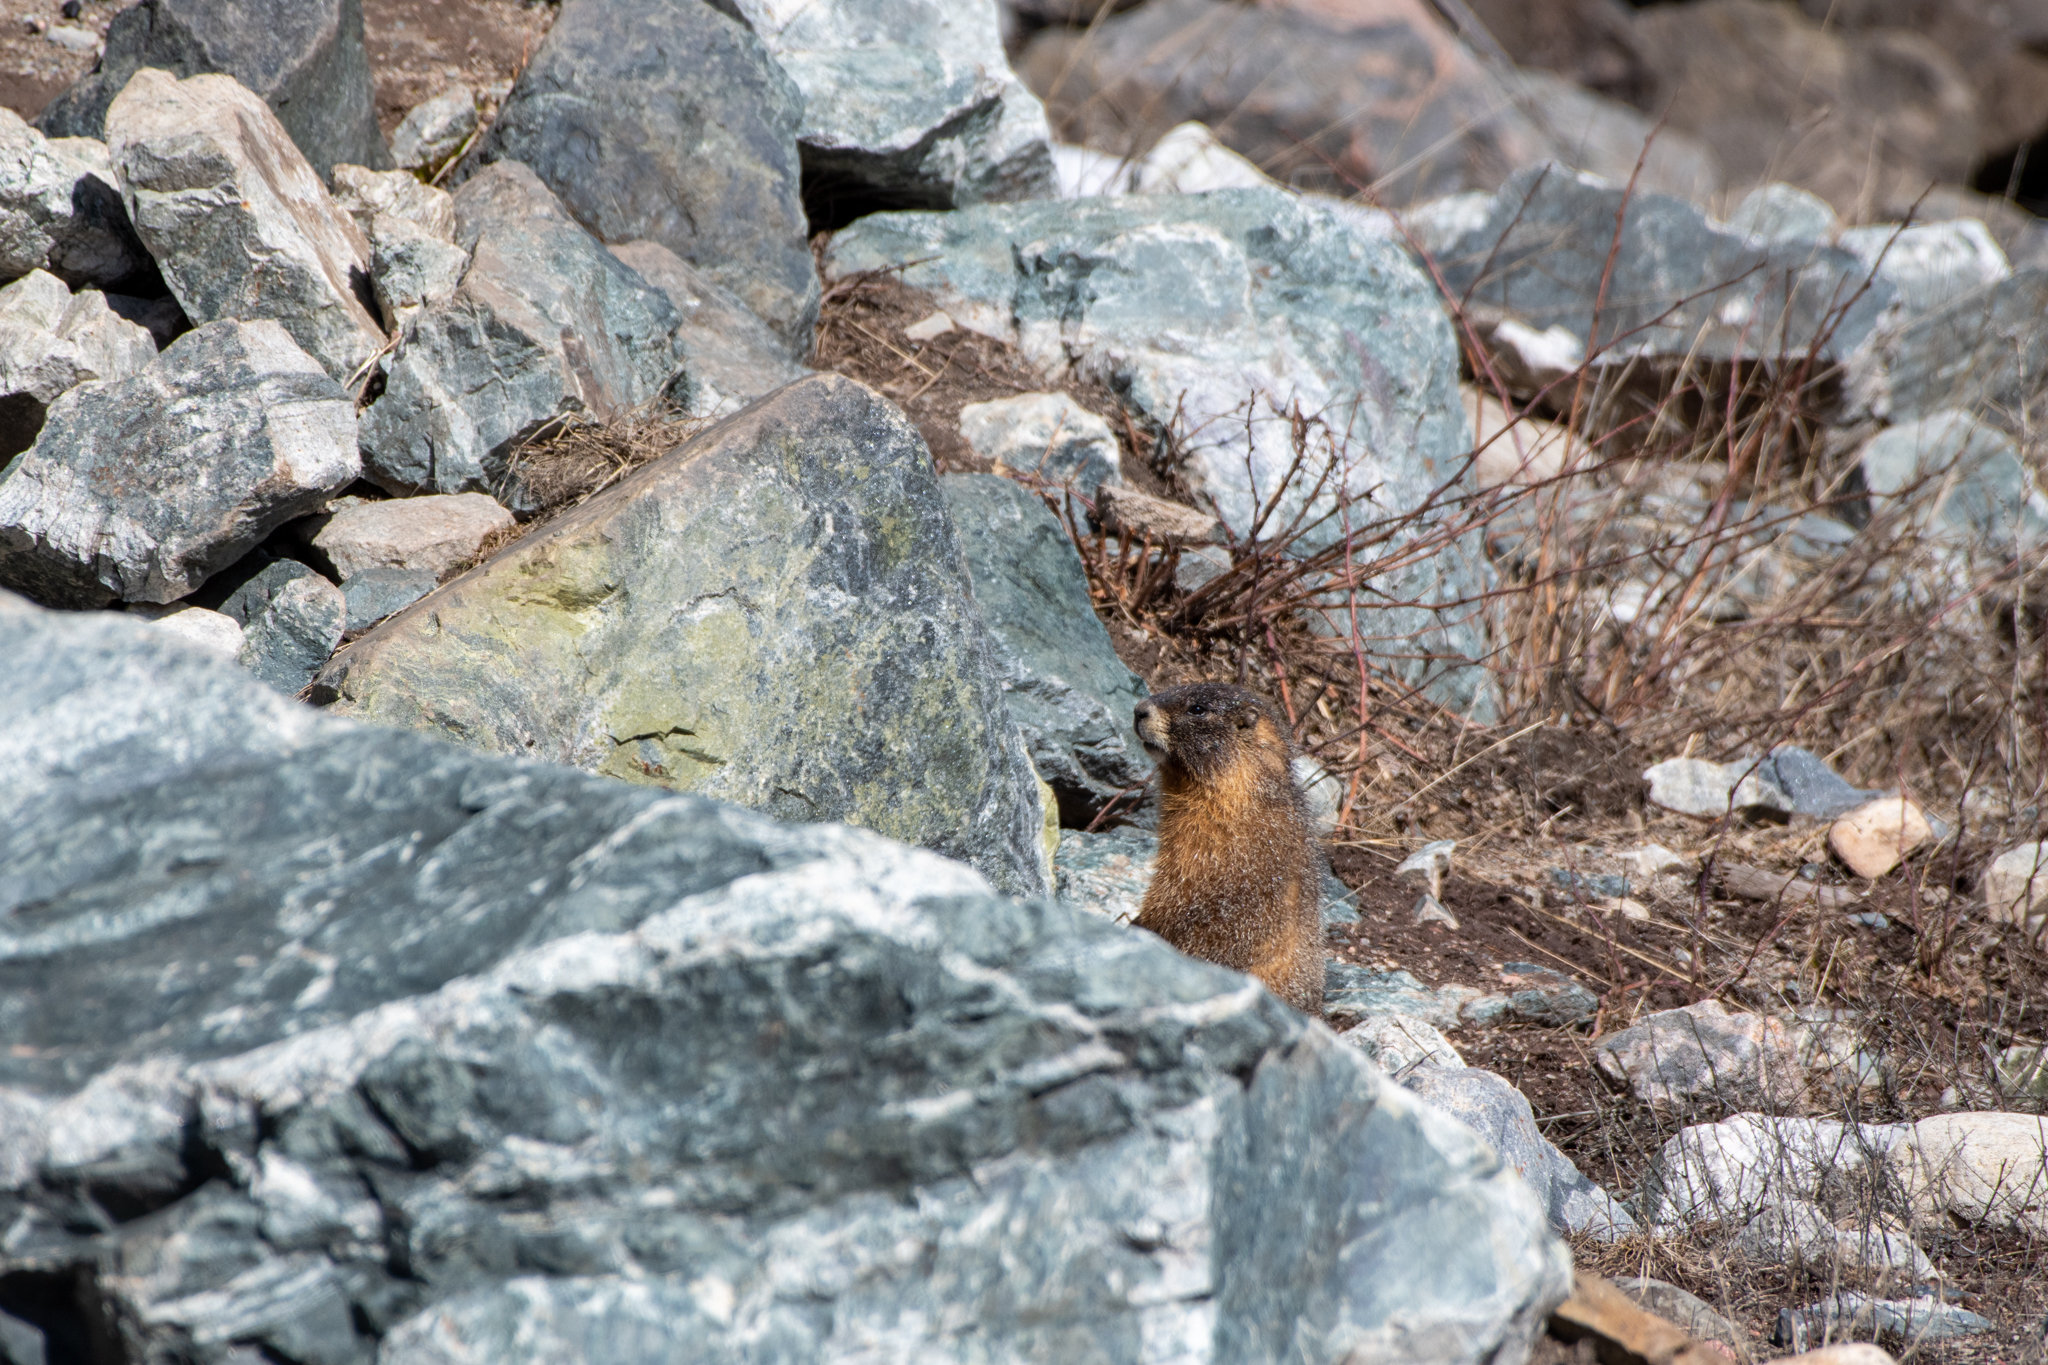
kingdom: Animalia
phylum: Chordata
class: Mammalia
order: Rodentia
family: Sciuridae
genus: Marmota
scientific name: Marmota flaviventris
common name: Yellow-bellied marmot
